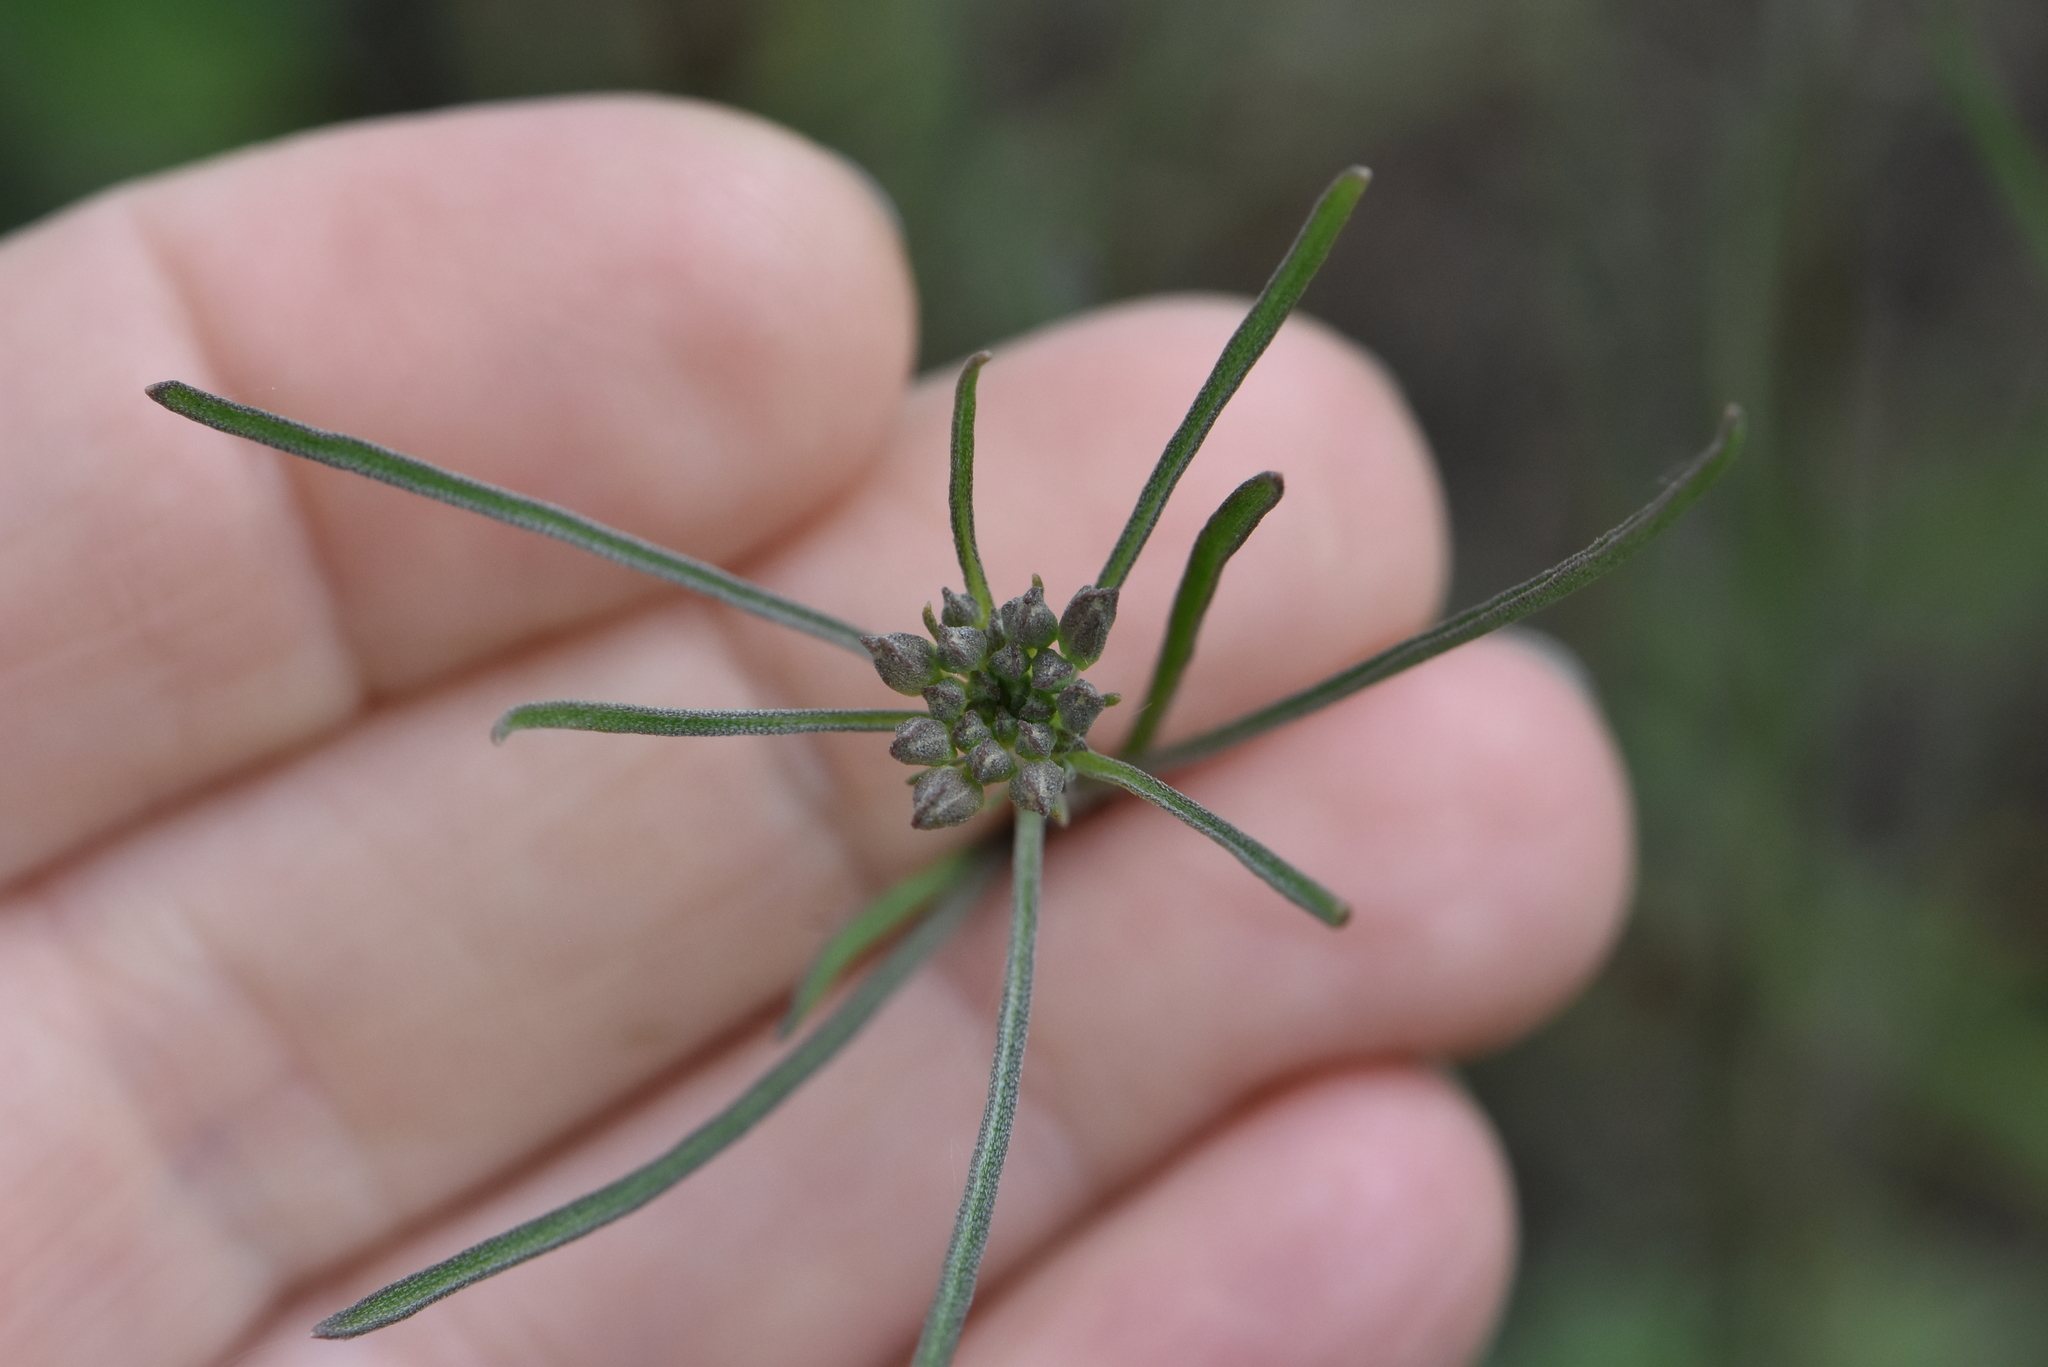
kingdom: Plantae
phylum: Tracheophyta
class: Magnoliopsida
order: Brassicales
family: Brassicaceae
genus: Erysimum
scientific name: Erysimum diffusum
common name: Diffuse wallflower
